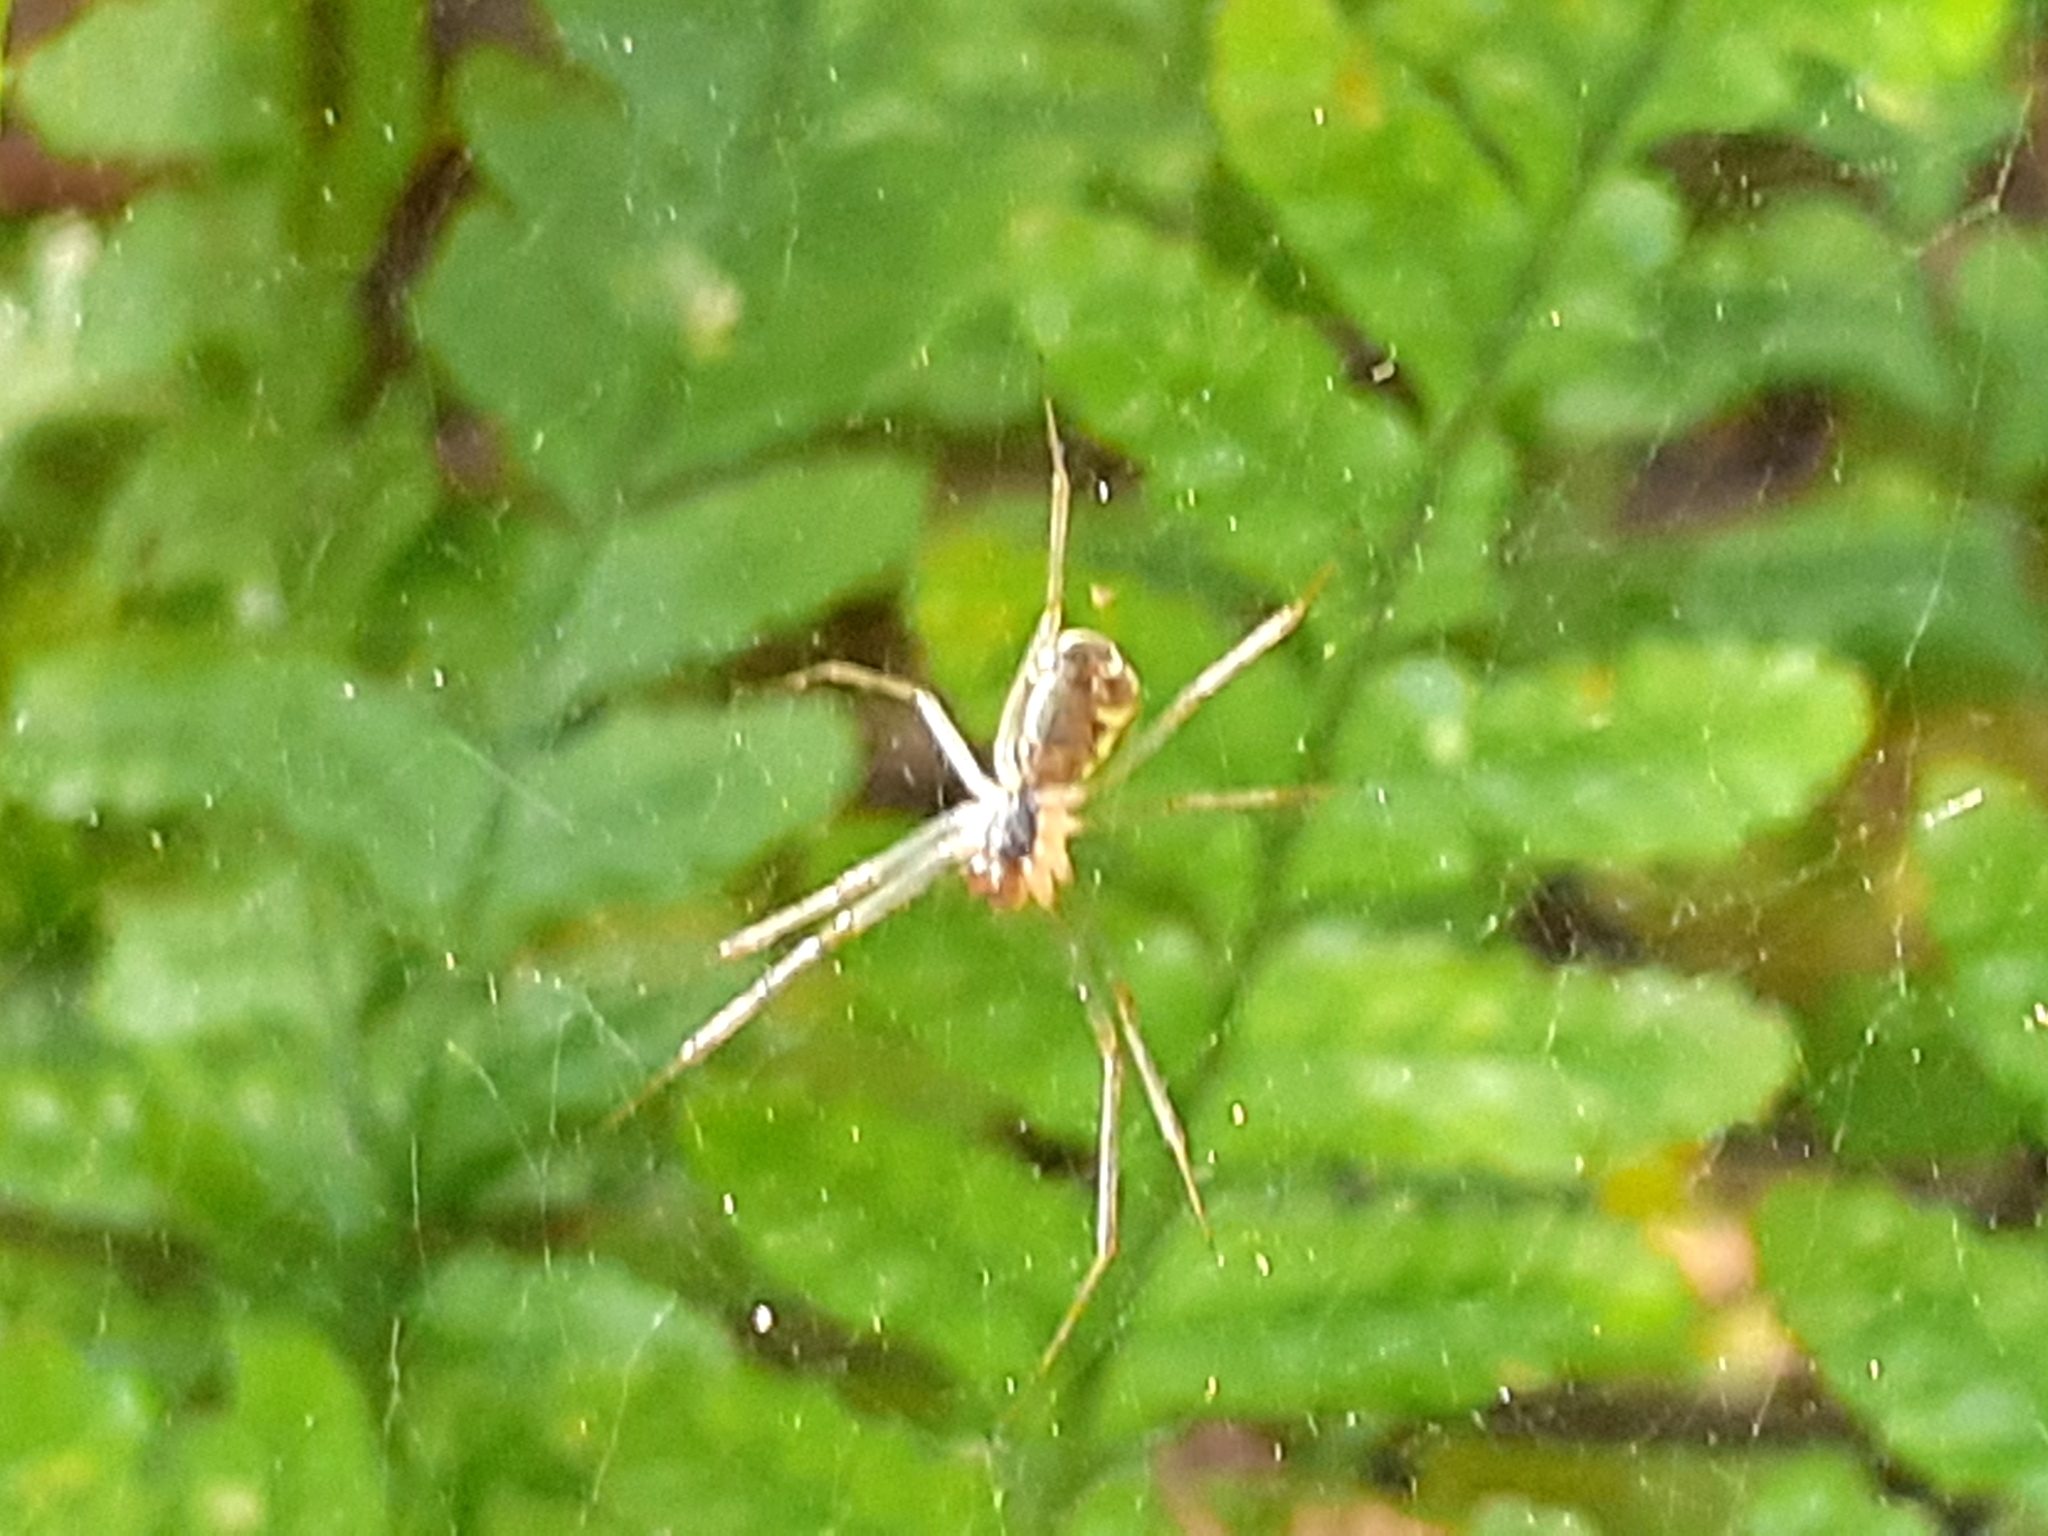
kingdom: Animalia
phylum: Arthropoda
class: Arachnida
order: Araneae
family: Linyphiidae
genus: Linyphia
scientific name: Linyphia triangularis
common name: Money spider
